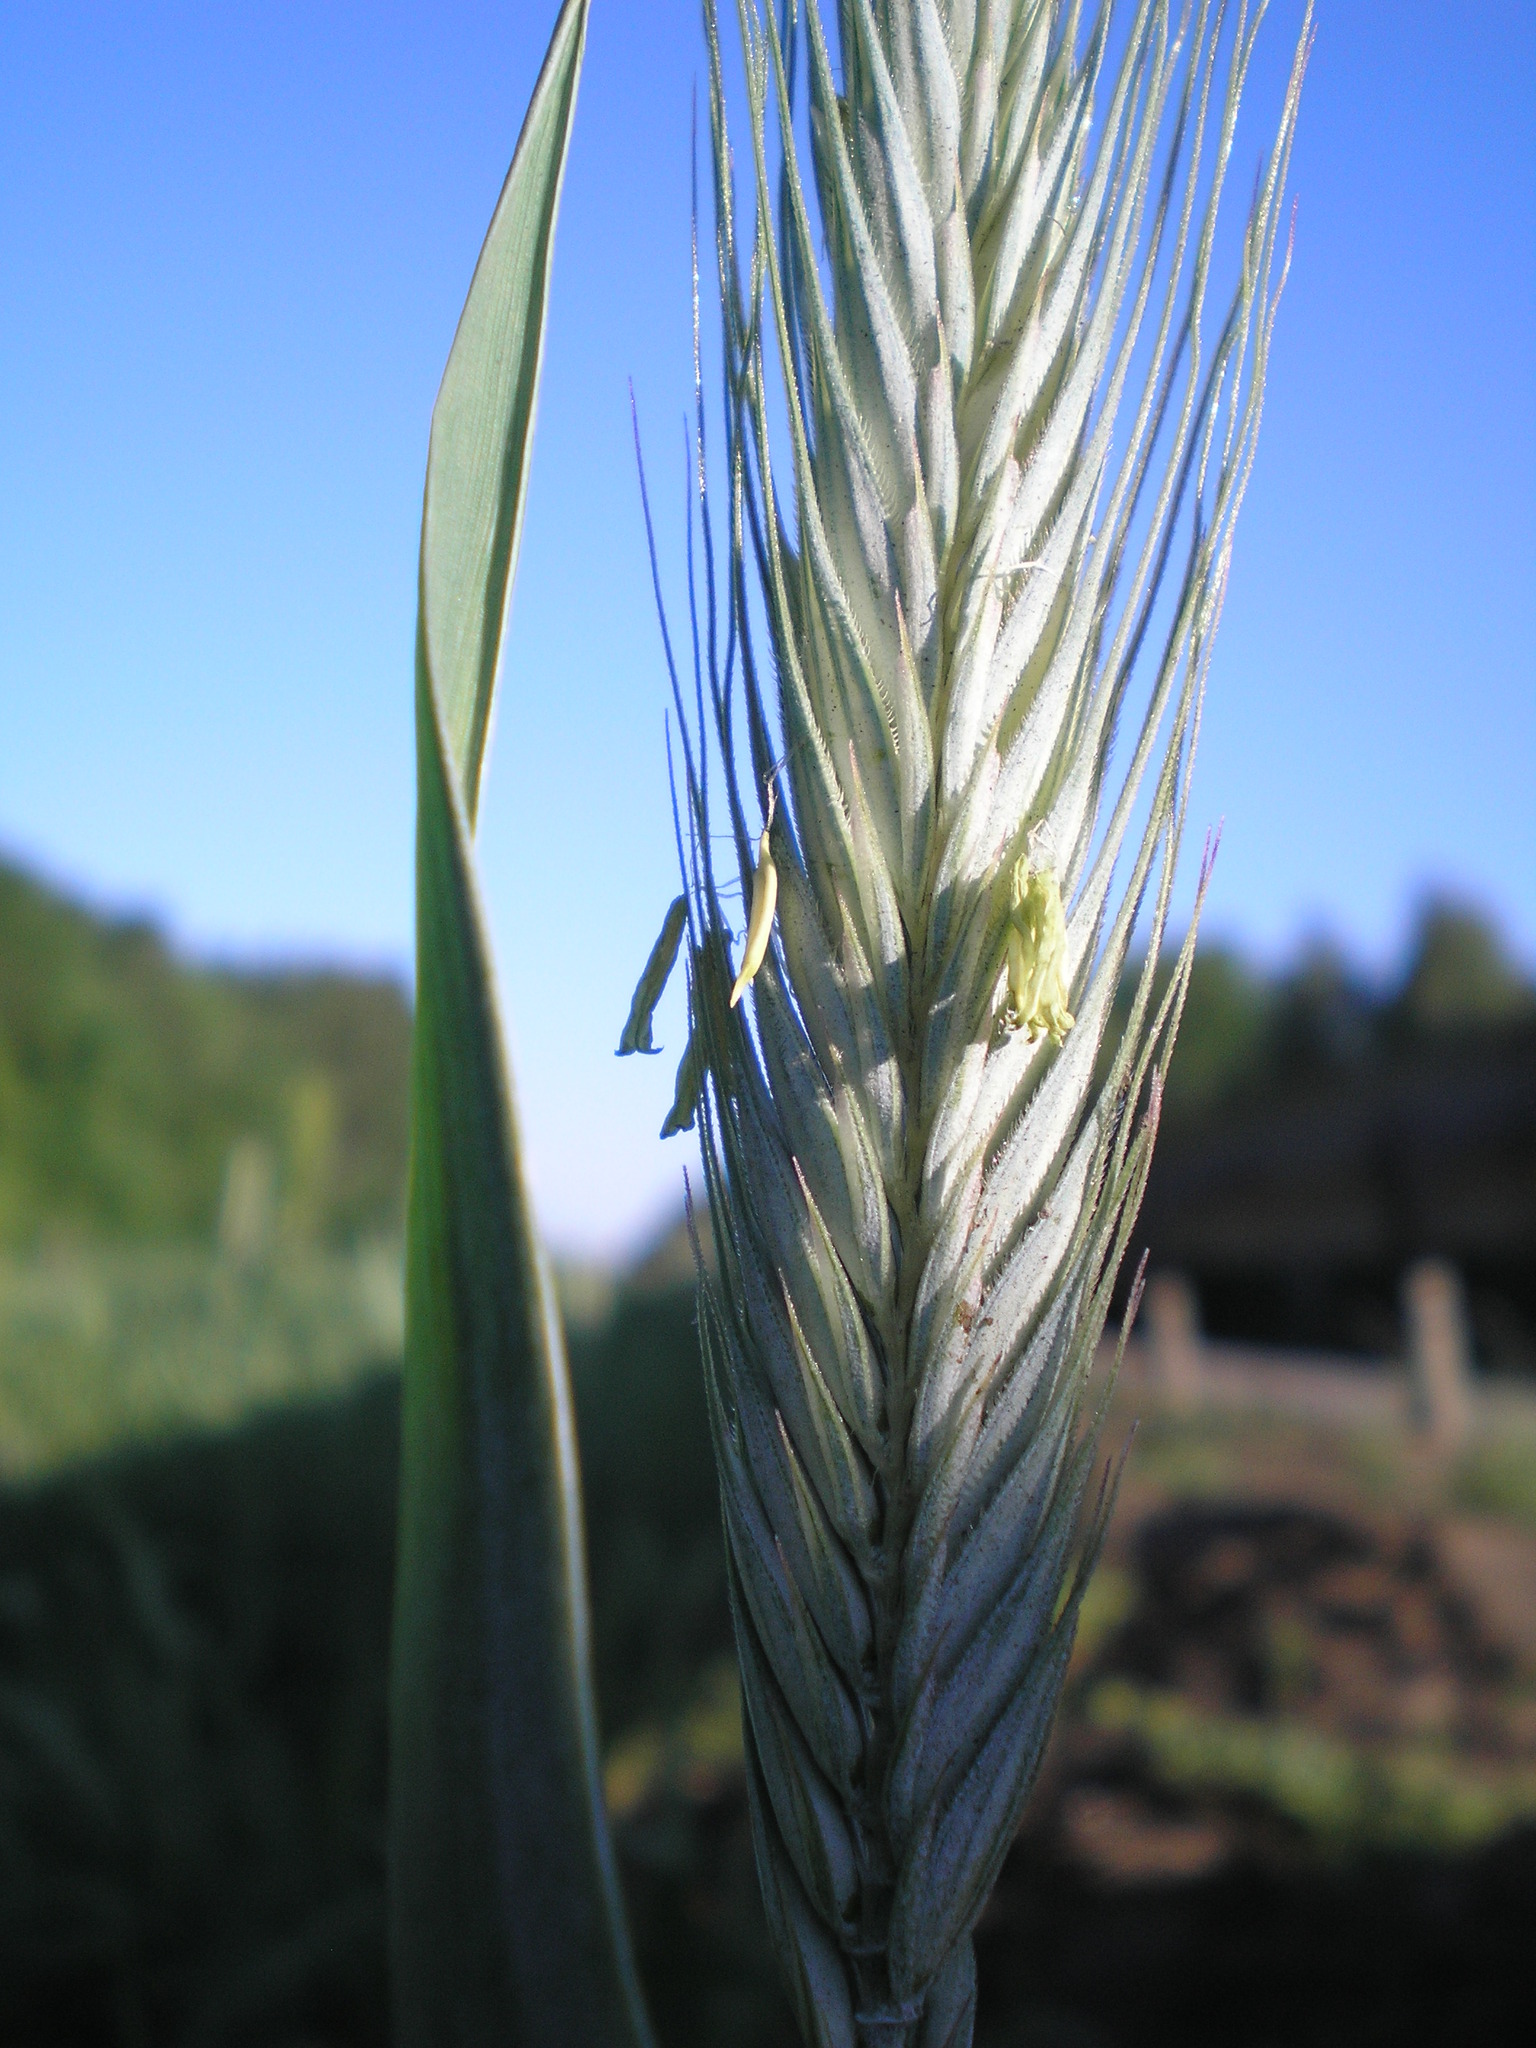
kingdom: Plantae
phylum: Tracheophyta
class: Liliopsida
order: Poales
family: Poaceae
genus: Secale
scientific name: Secale cereale
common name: Rye
